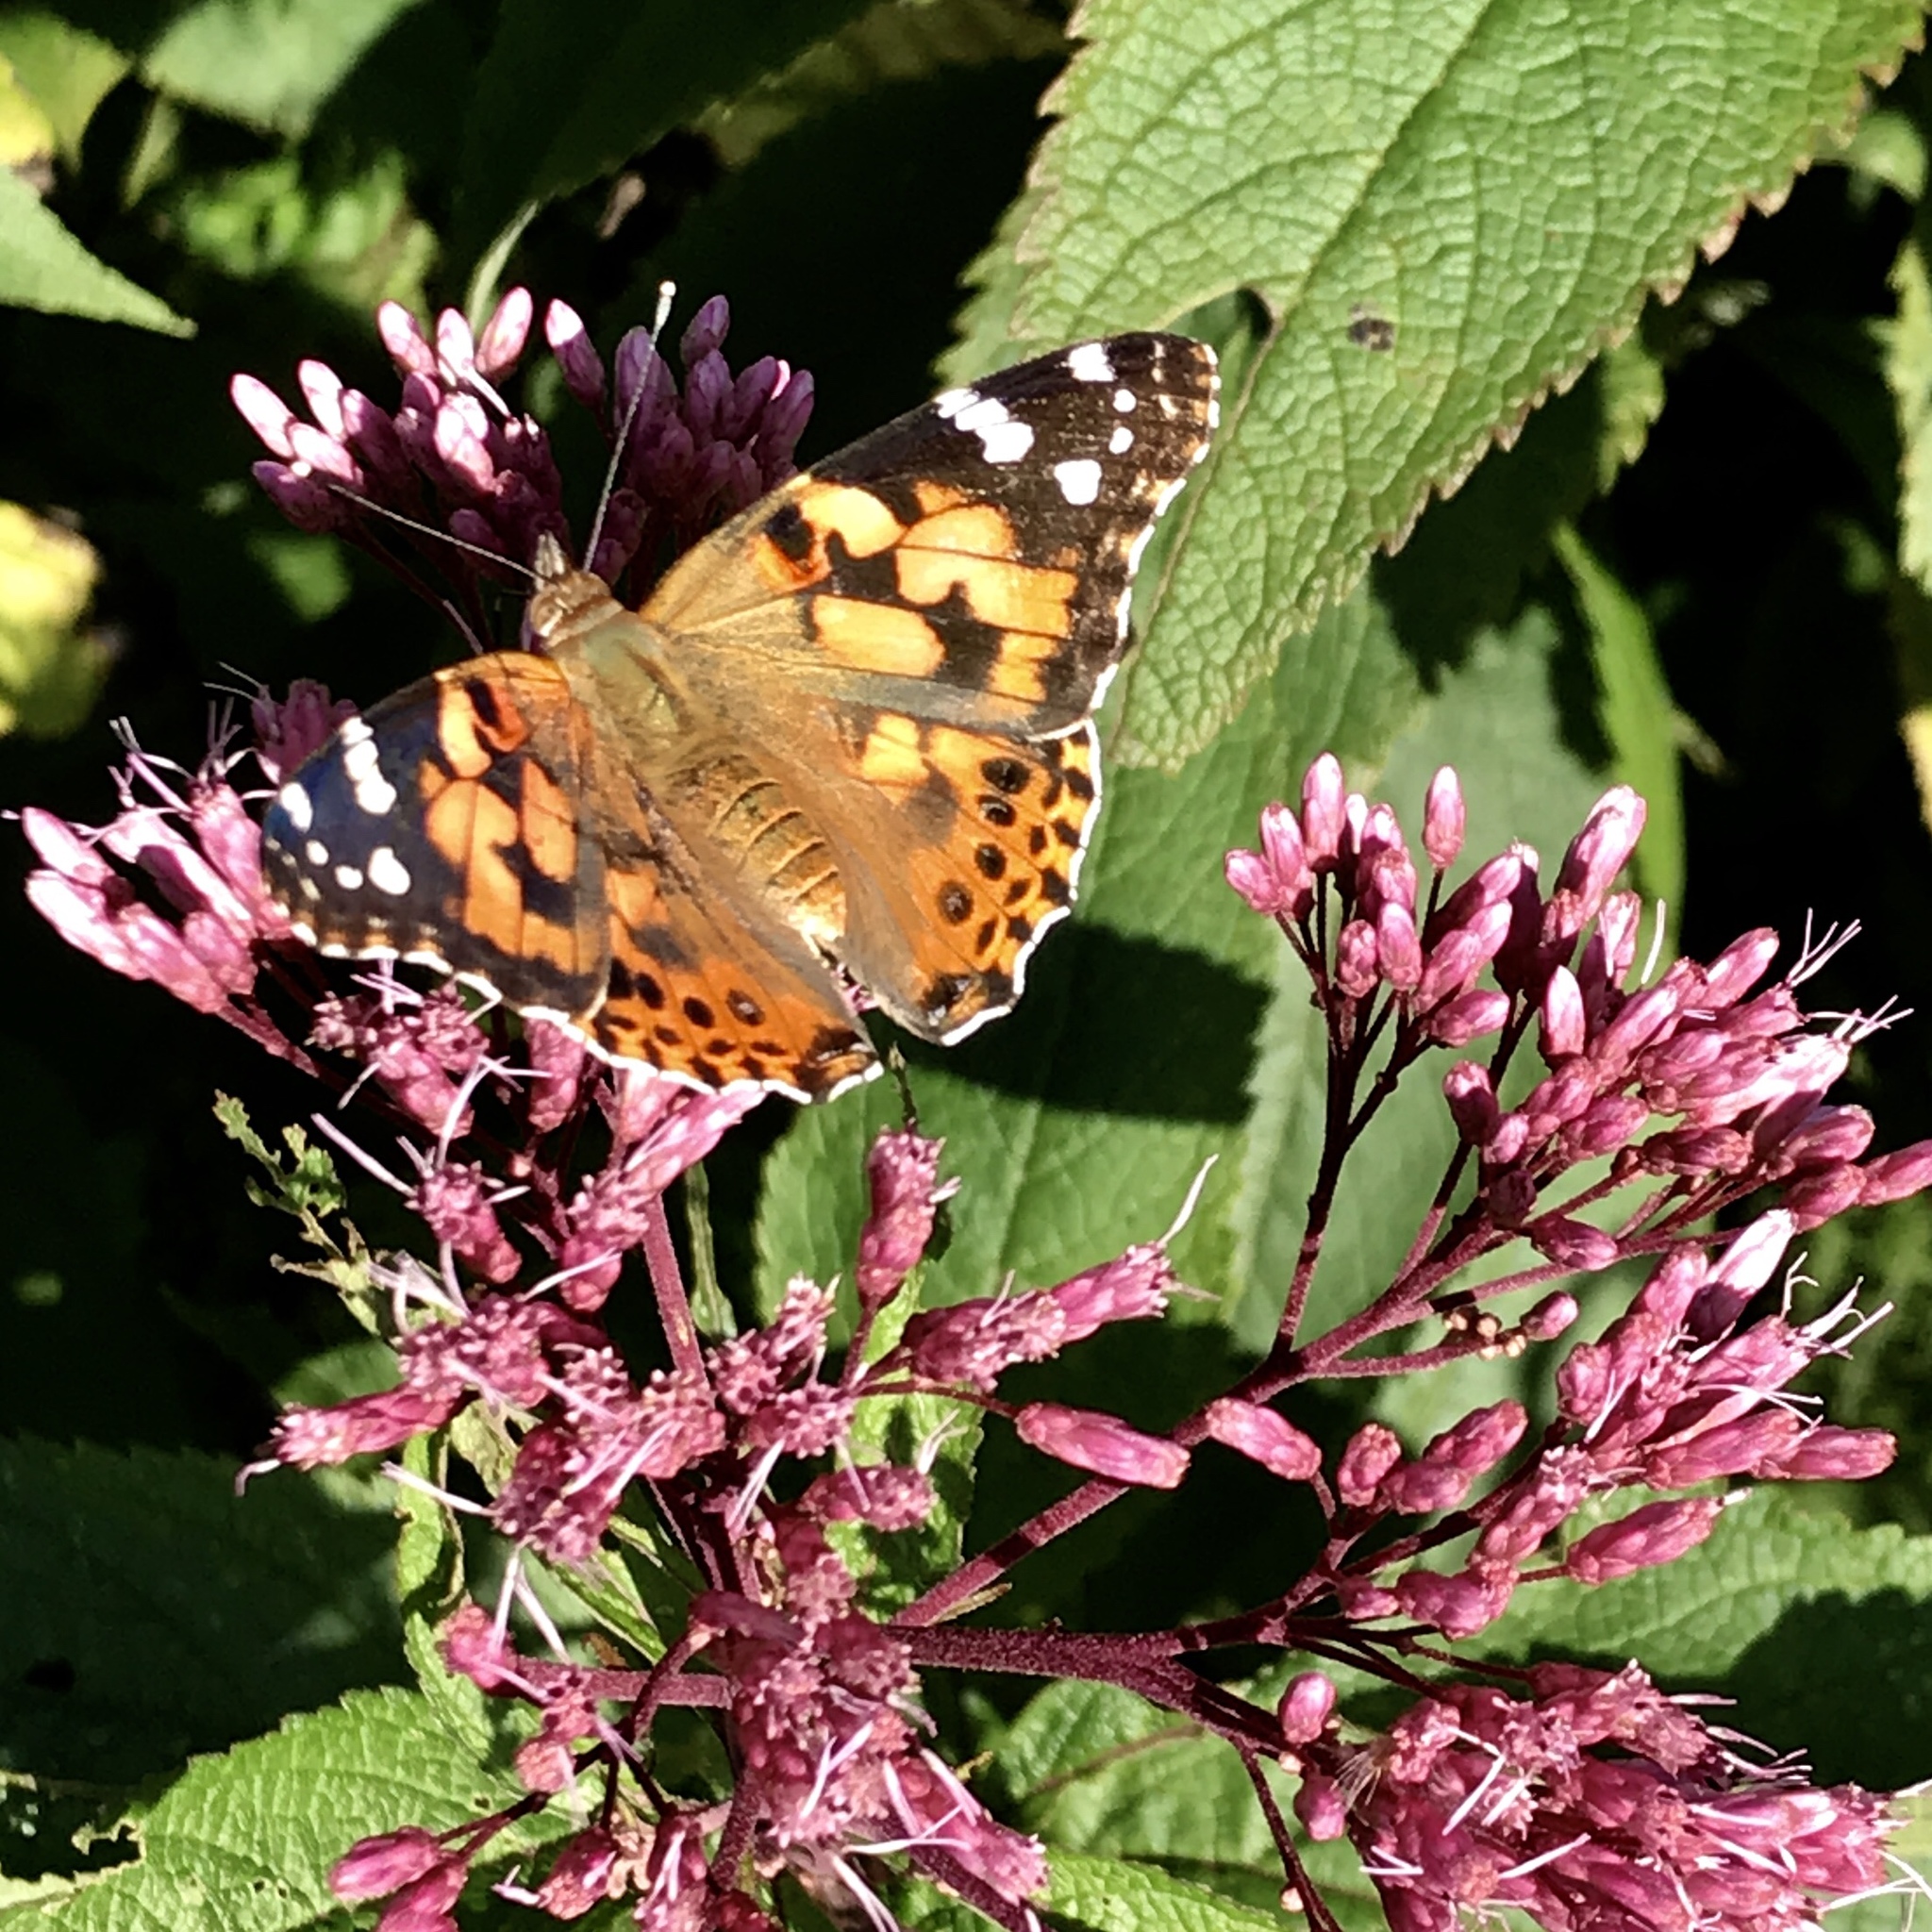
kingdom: Animalia
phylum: Arthropoda
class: Insecta
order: Lepidoptera
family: Nymphalidae
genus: Vanessa
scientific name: Vanessa cardui
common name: Painted lady
